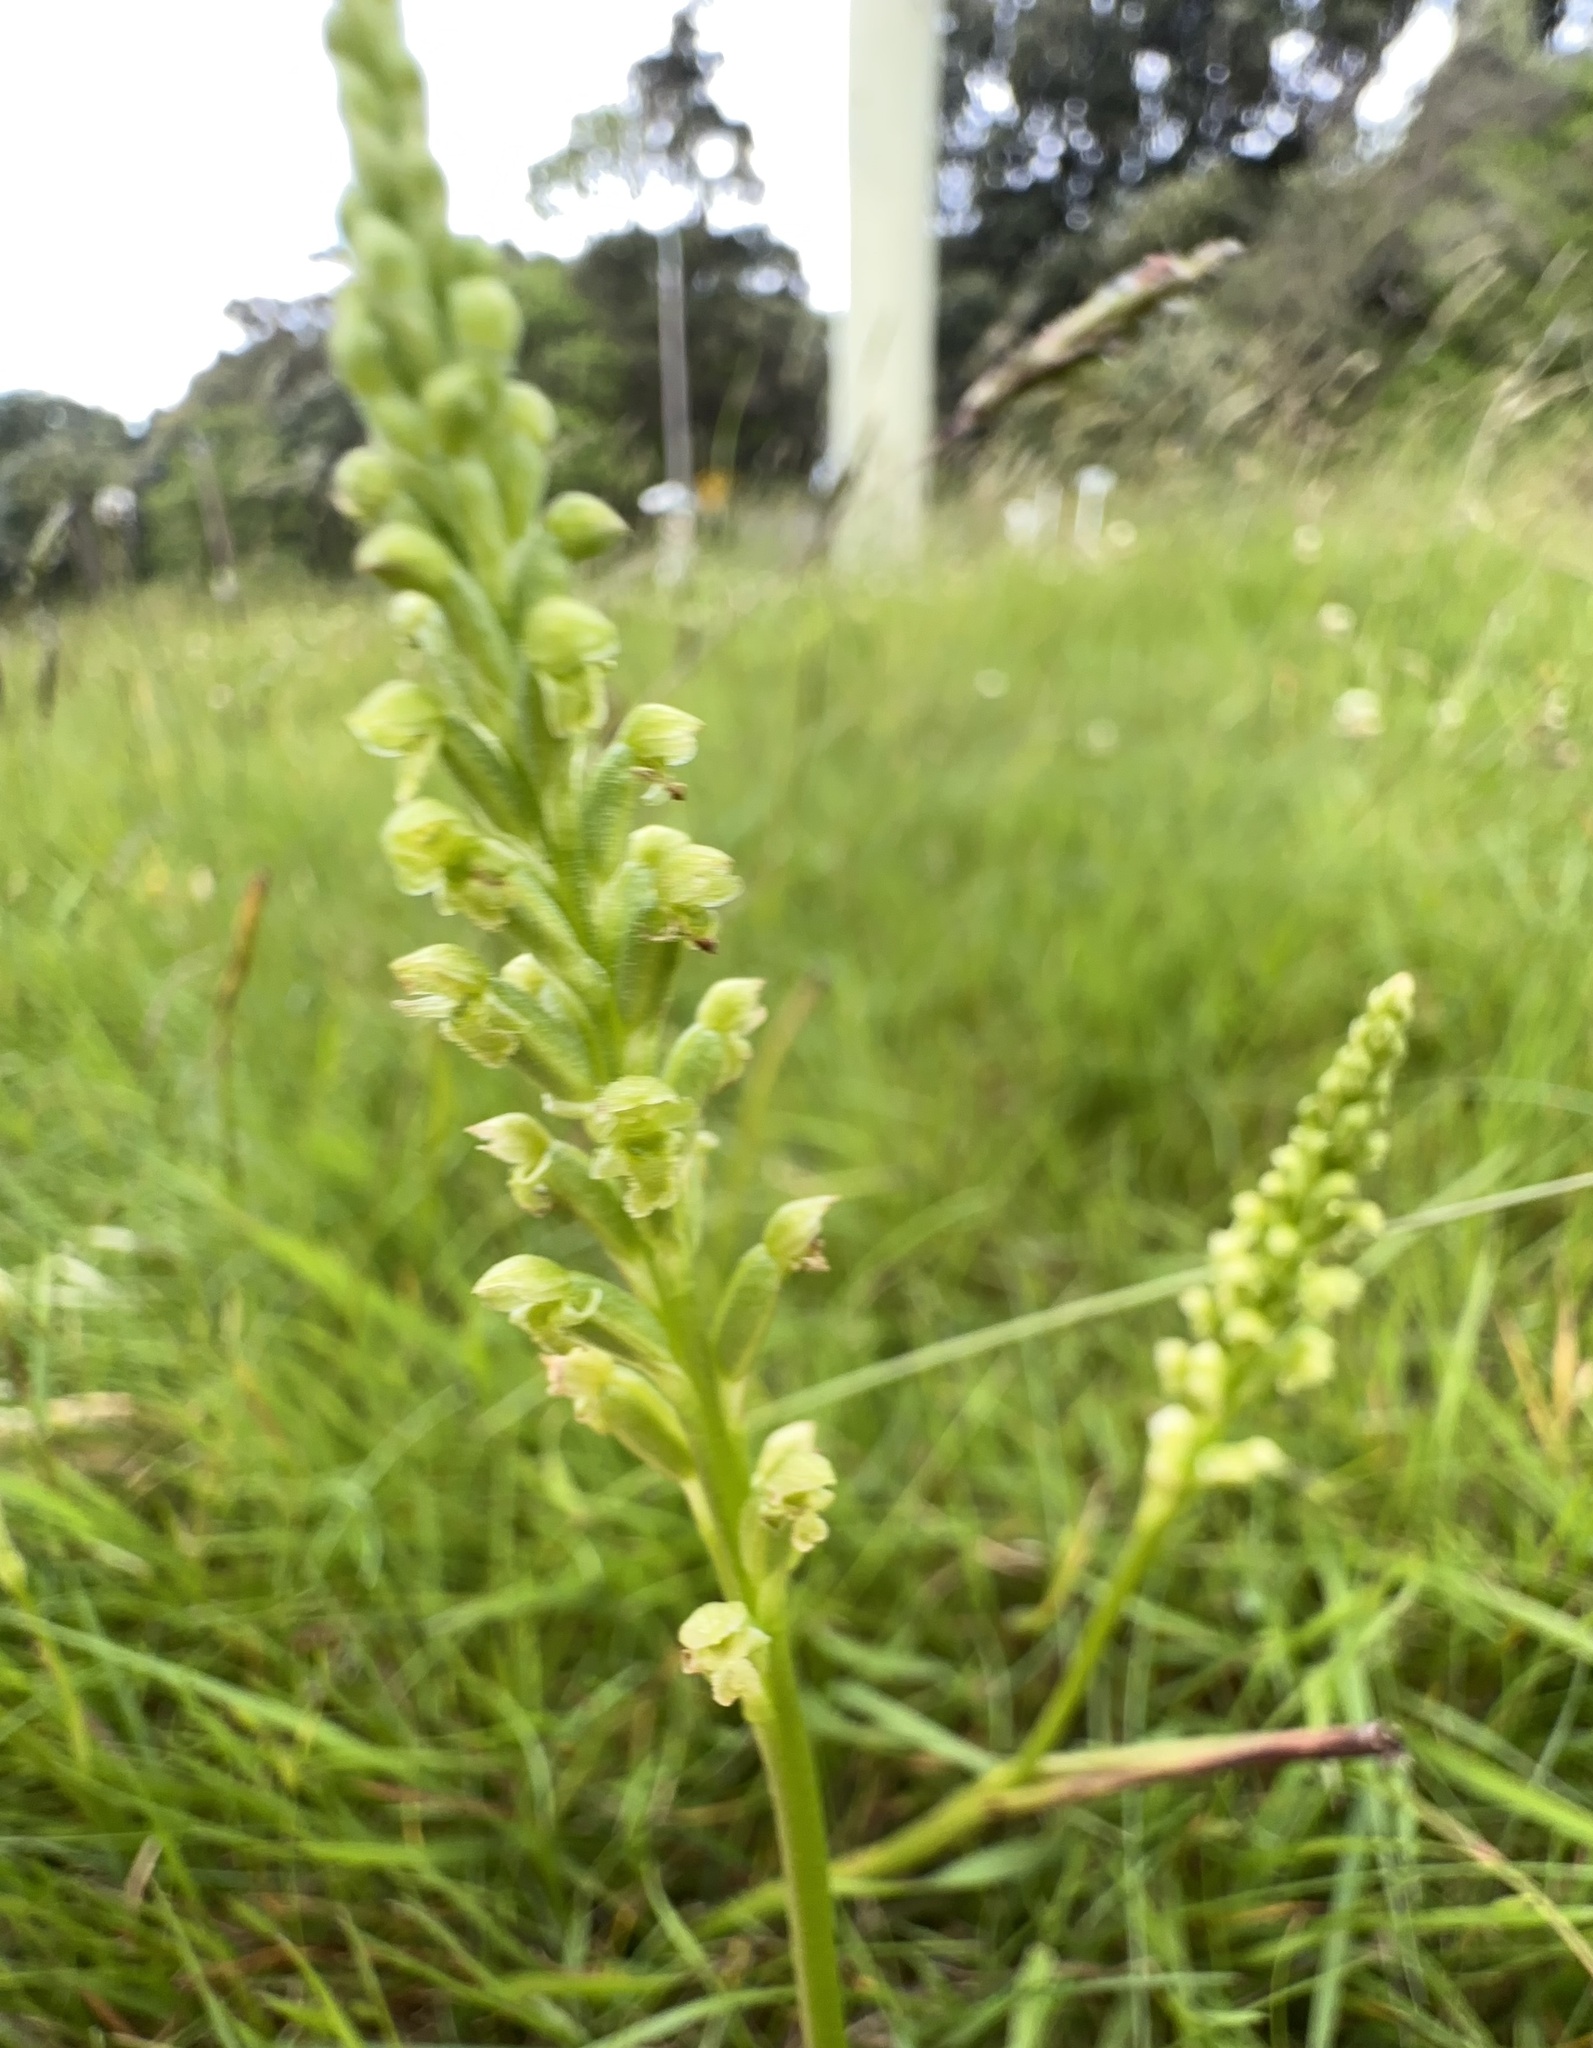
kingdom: Plantae
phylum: Tracheophyta
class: Liliopsida
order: Asparagales
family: Orchidaceae
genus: Microtis
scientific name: Microtis unifolia
